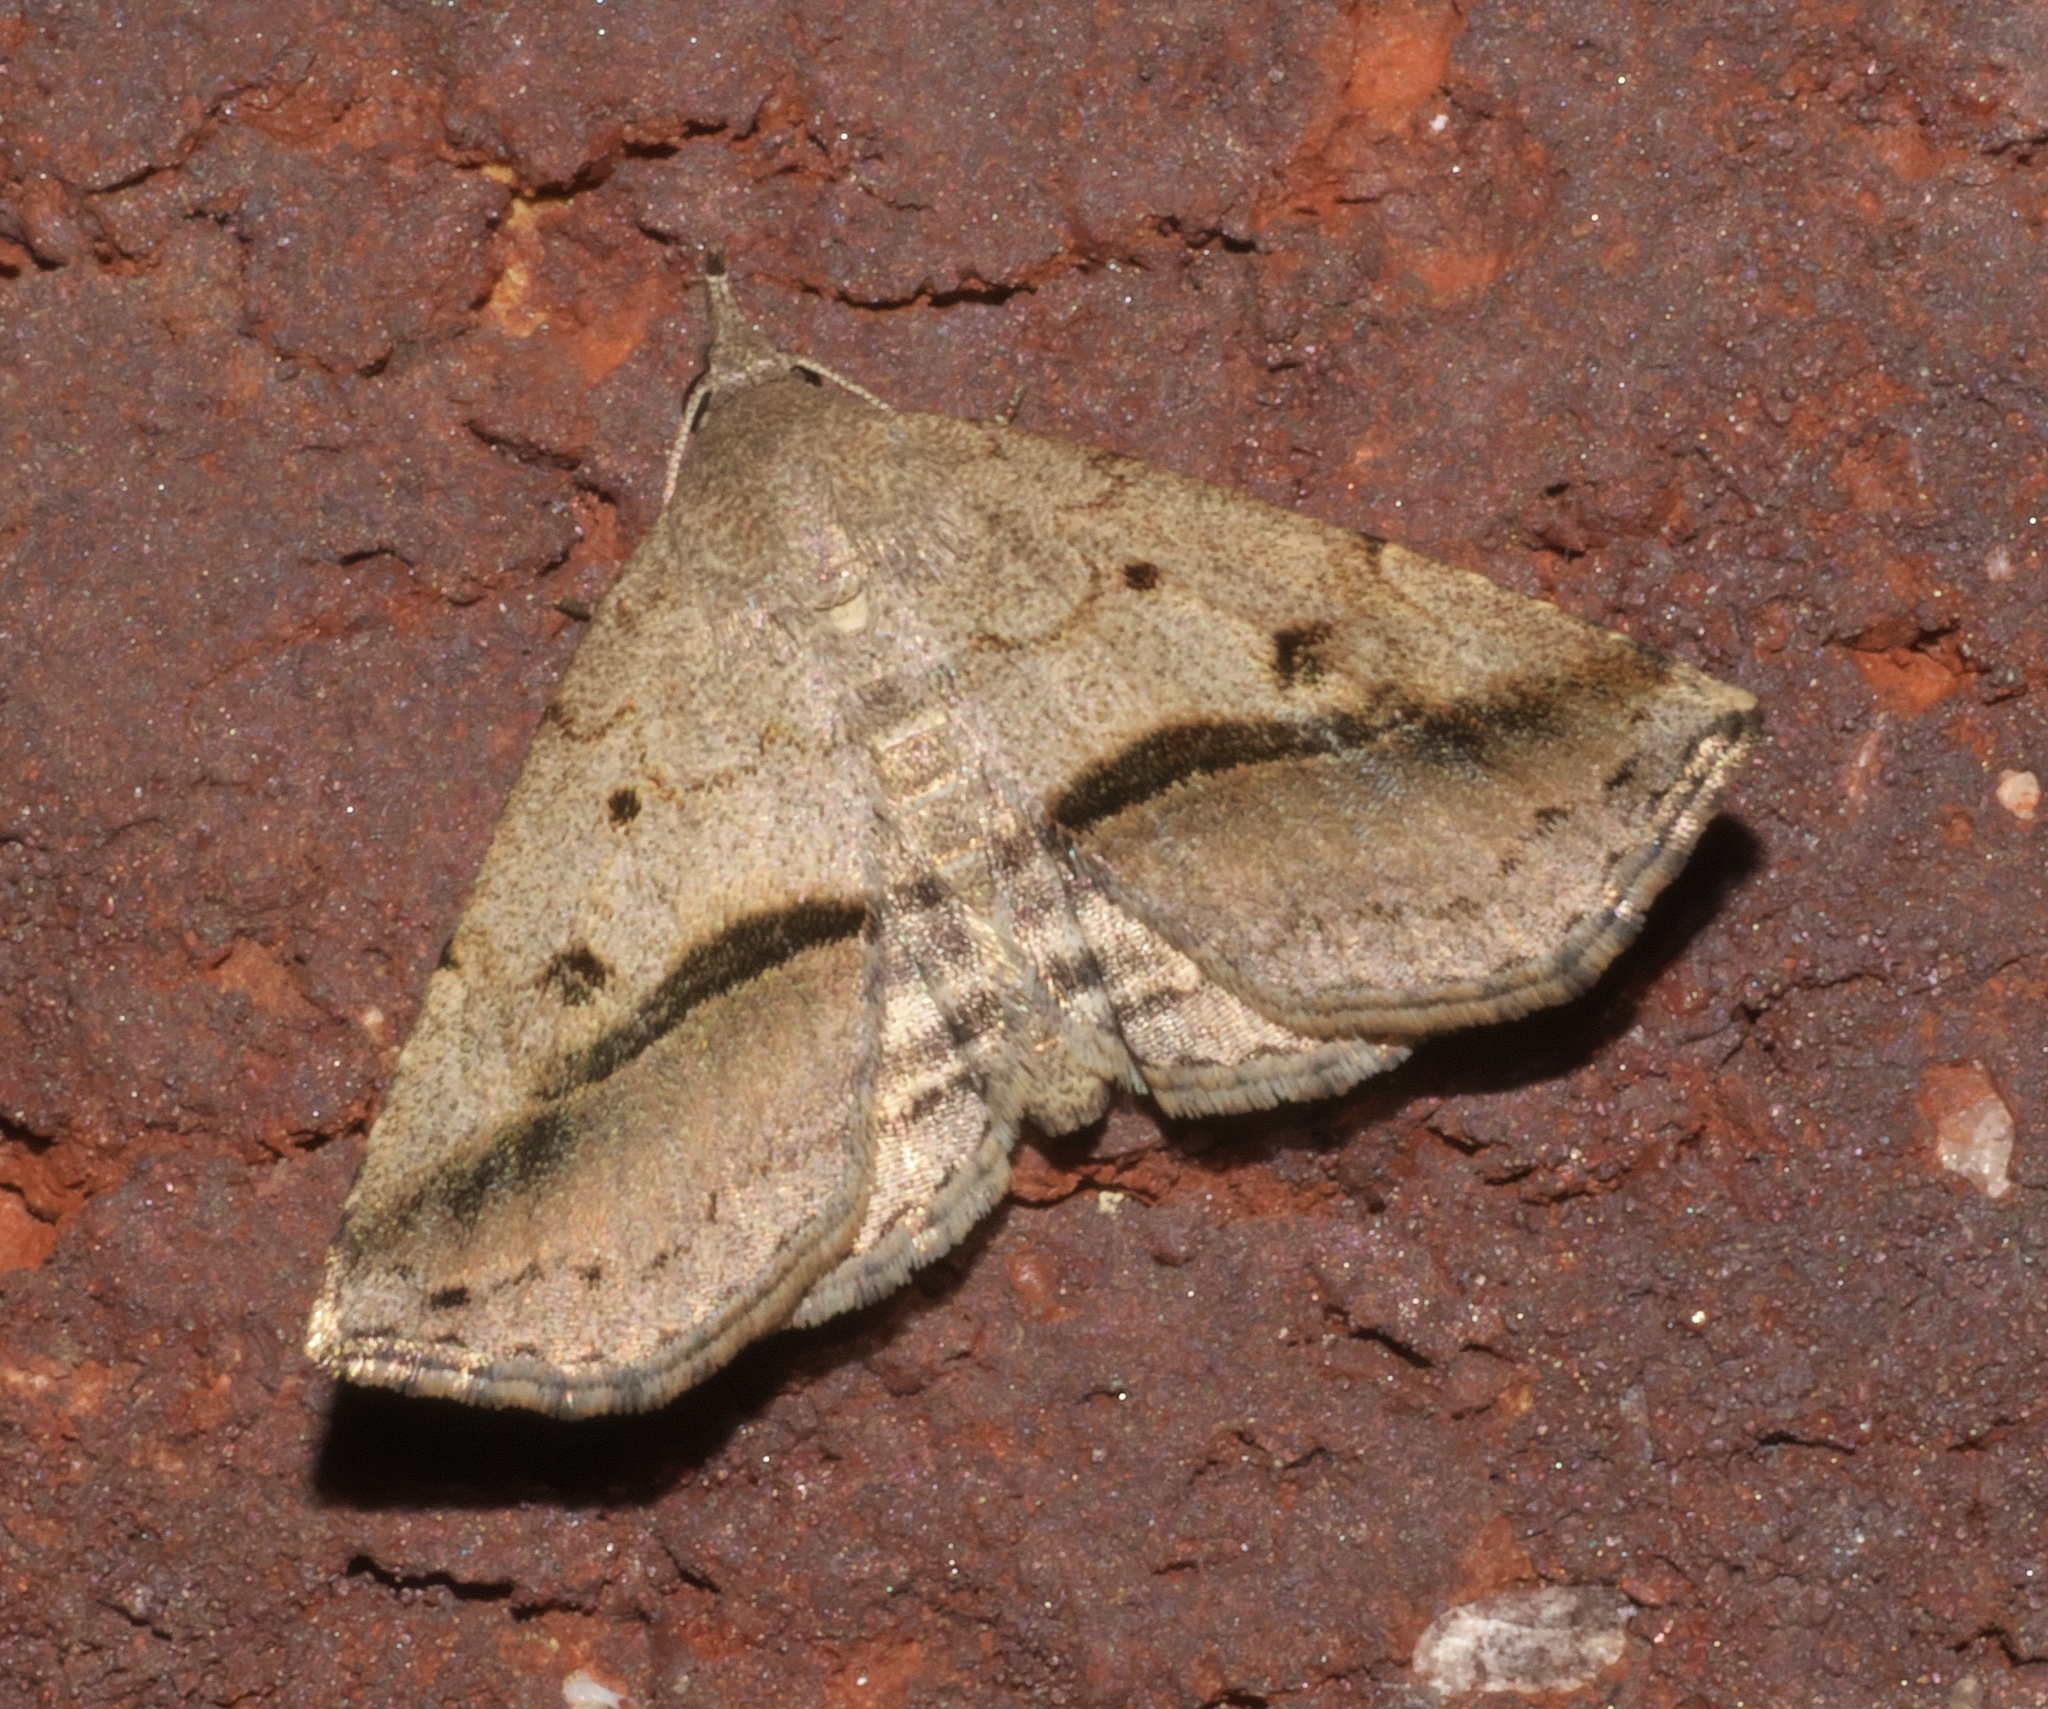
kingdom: Animalia
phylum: Arthropoda
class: Insecta
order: Lepidoptera
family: Erebidae
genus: Spargaloma
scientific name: Spargaloma perditalis
